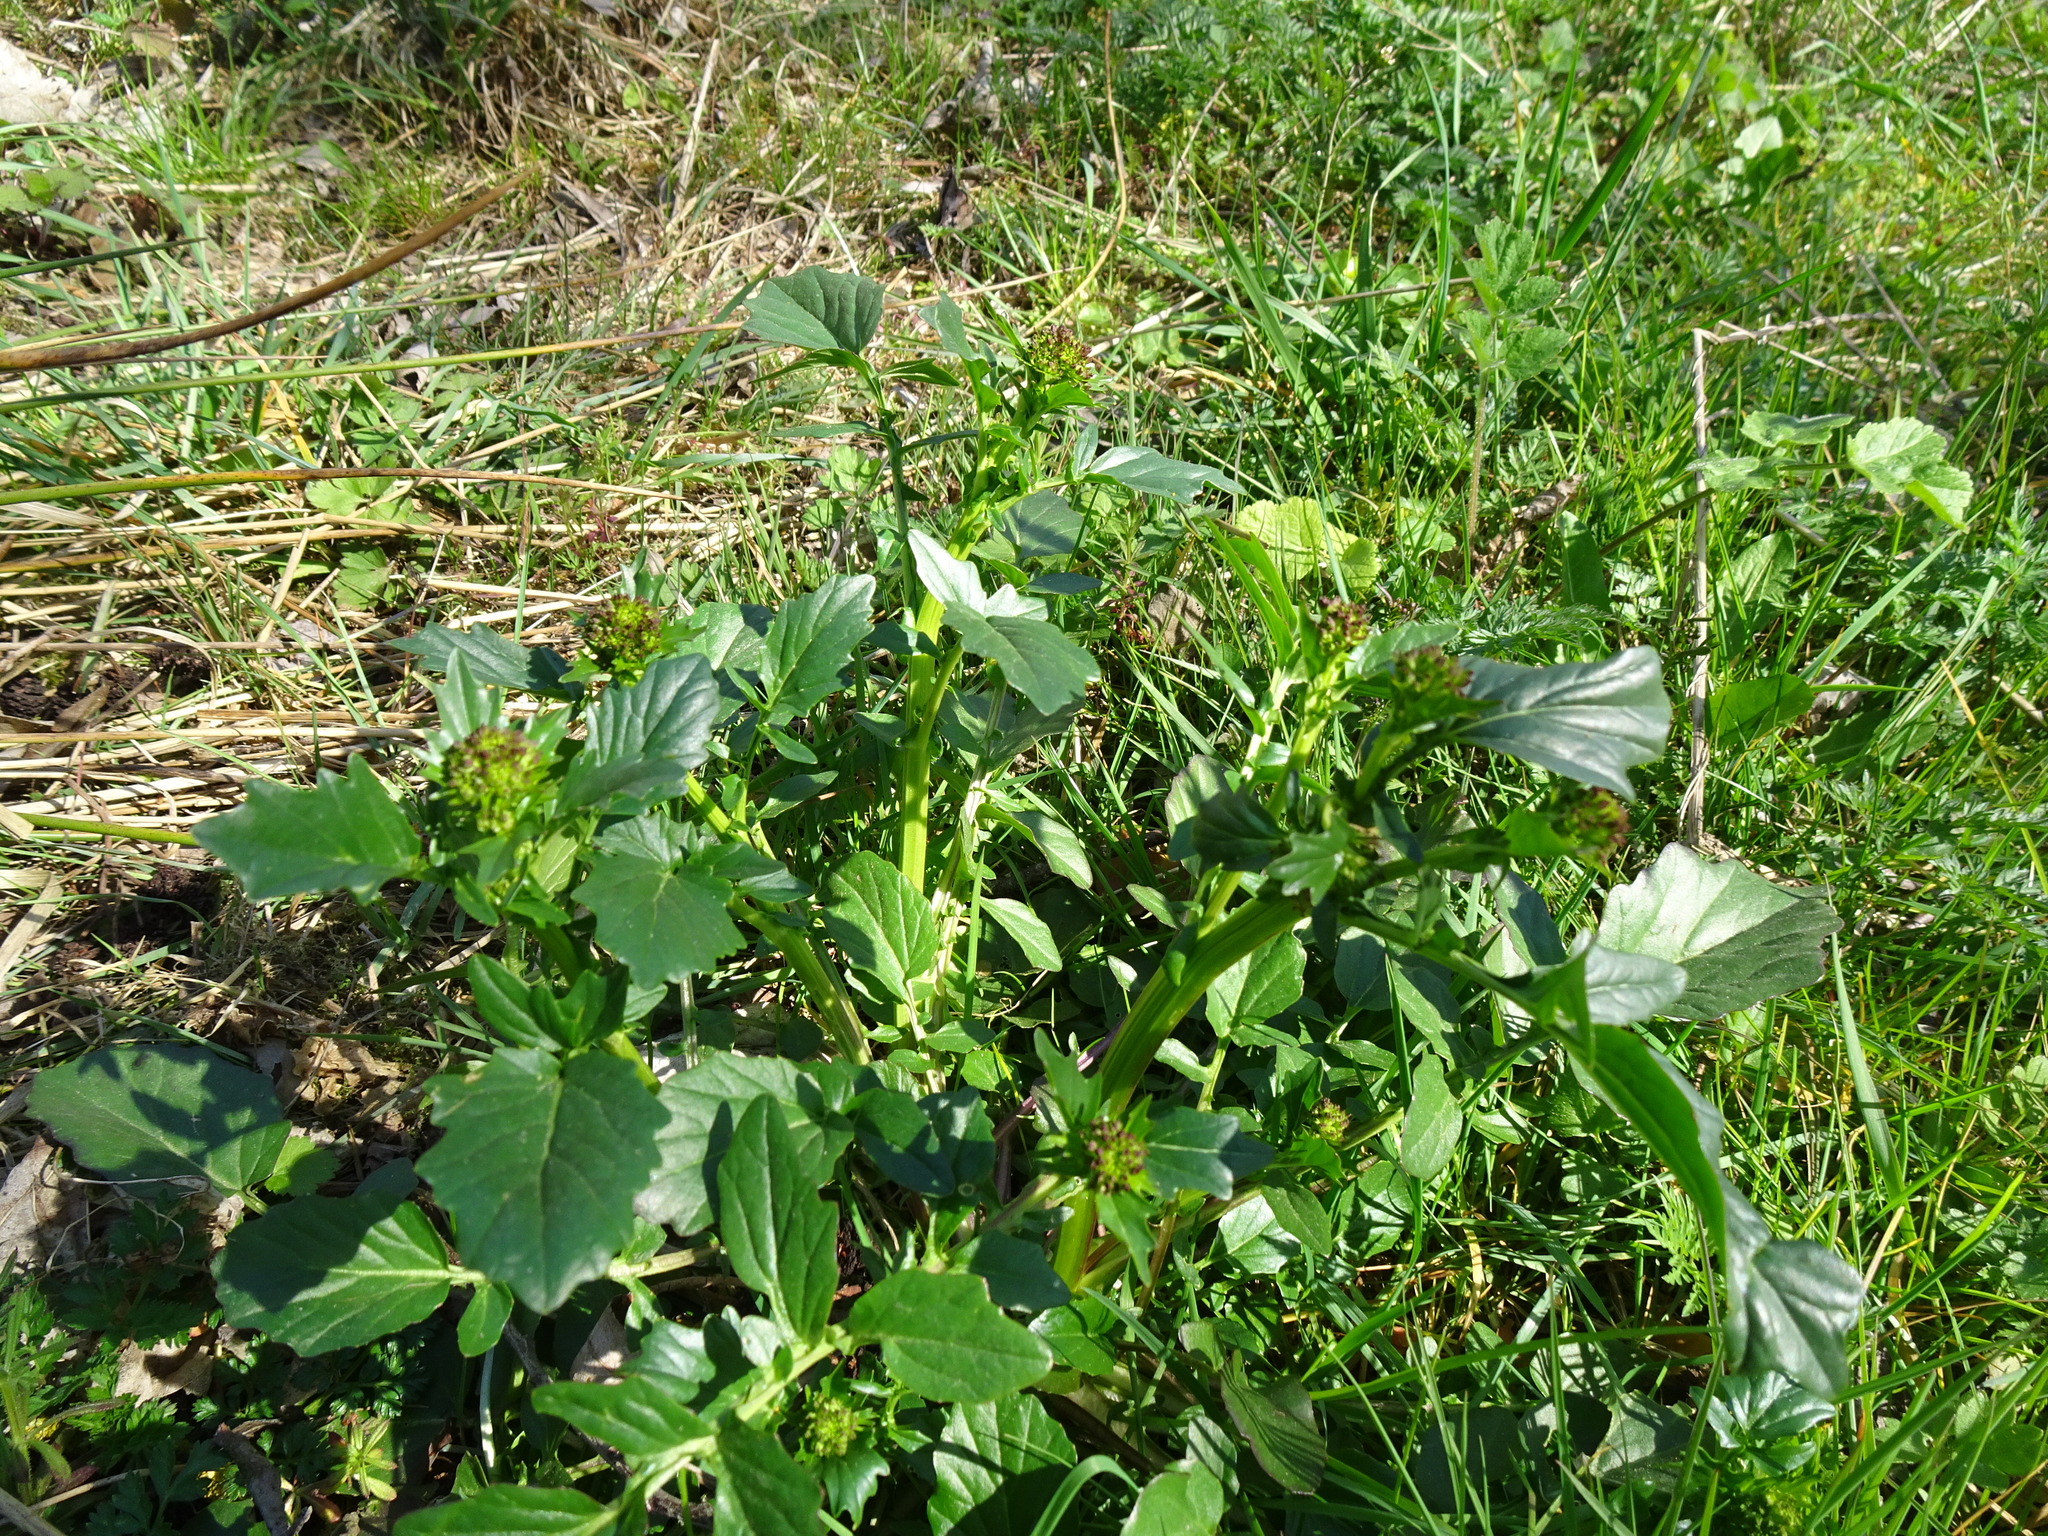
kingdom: Plantae
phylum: Tracheophyta
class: Magnoliopsida
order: Brassicales
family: Brassicaceae
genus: Barbarea
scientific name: Barbarea vulgaris
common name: Cressy-greens
